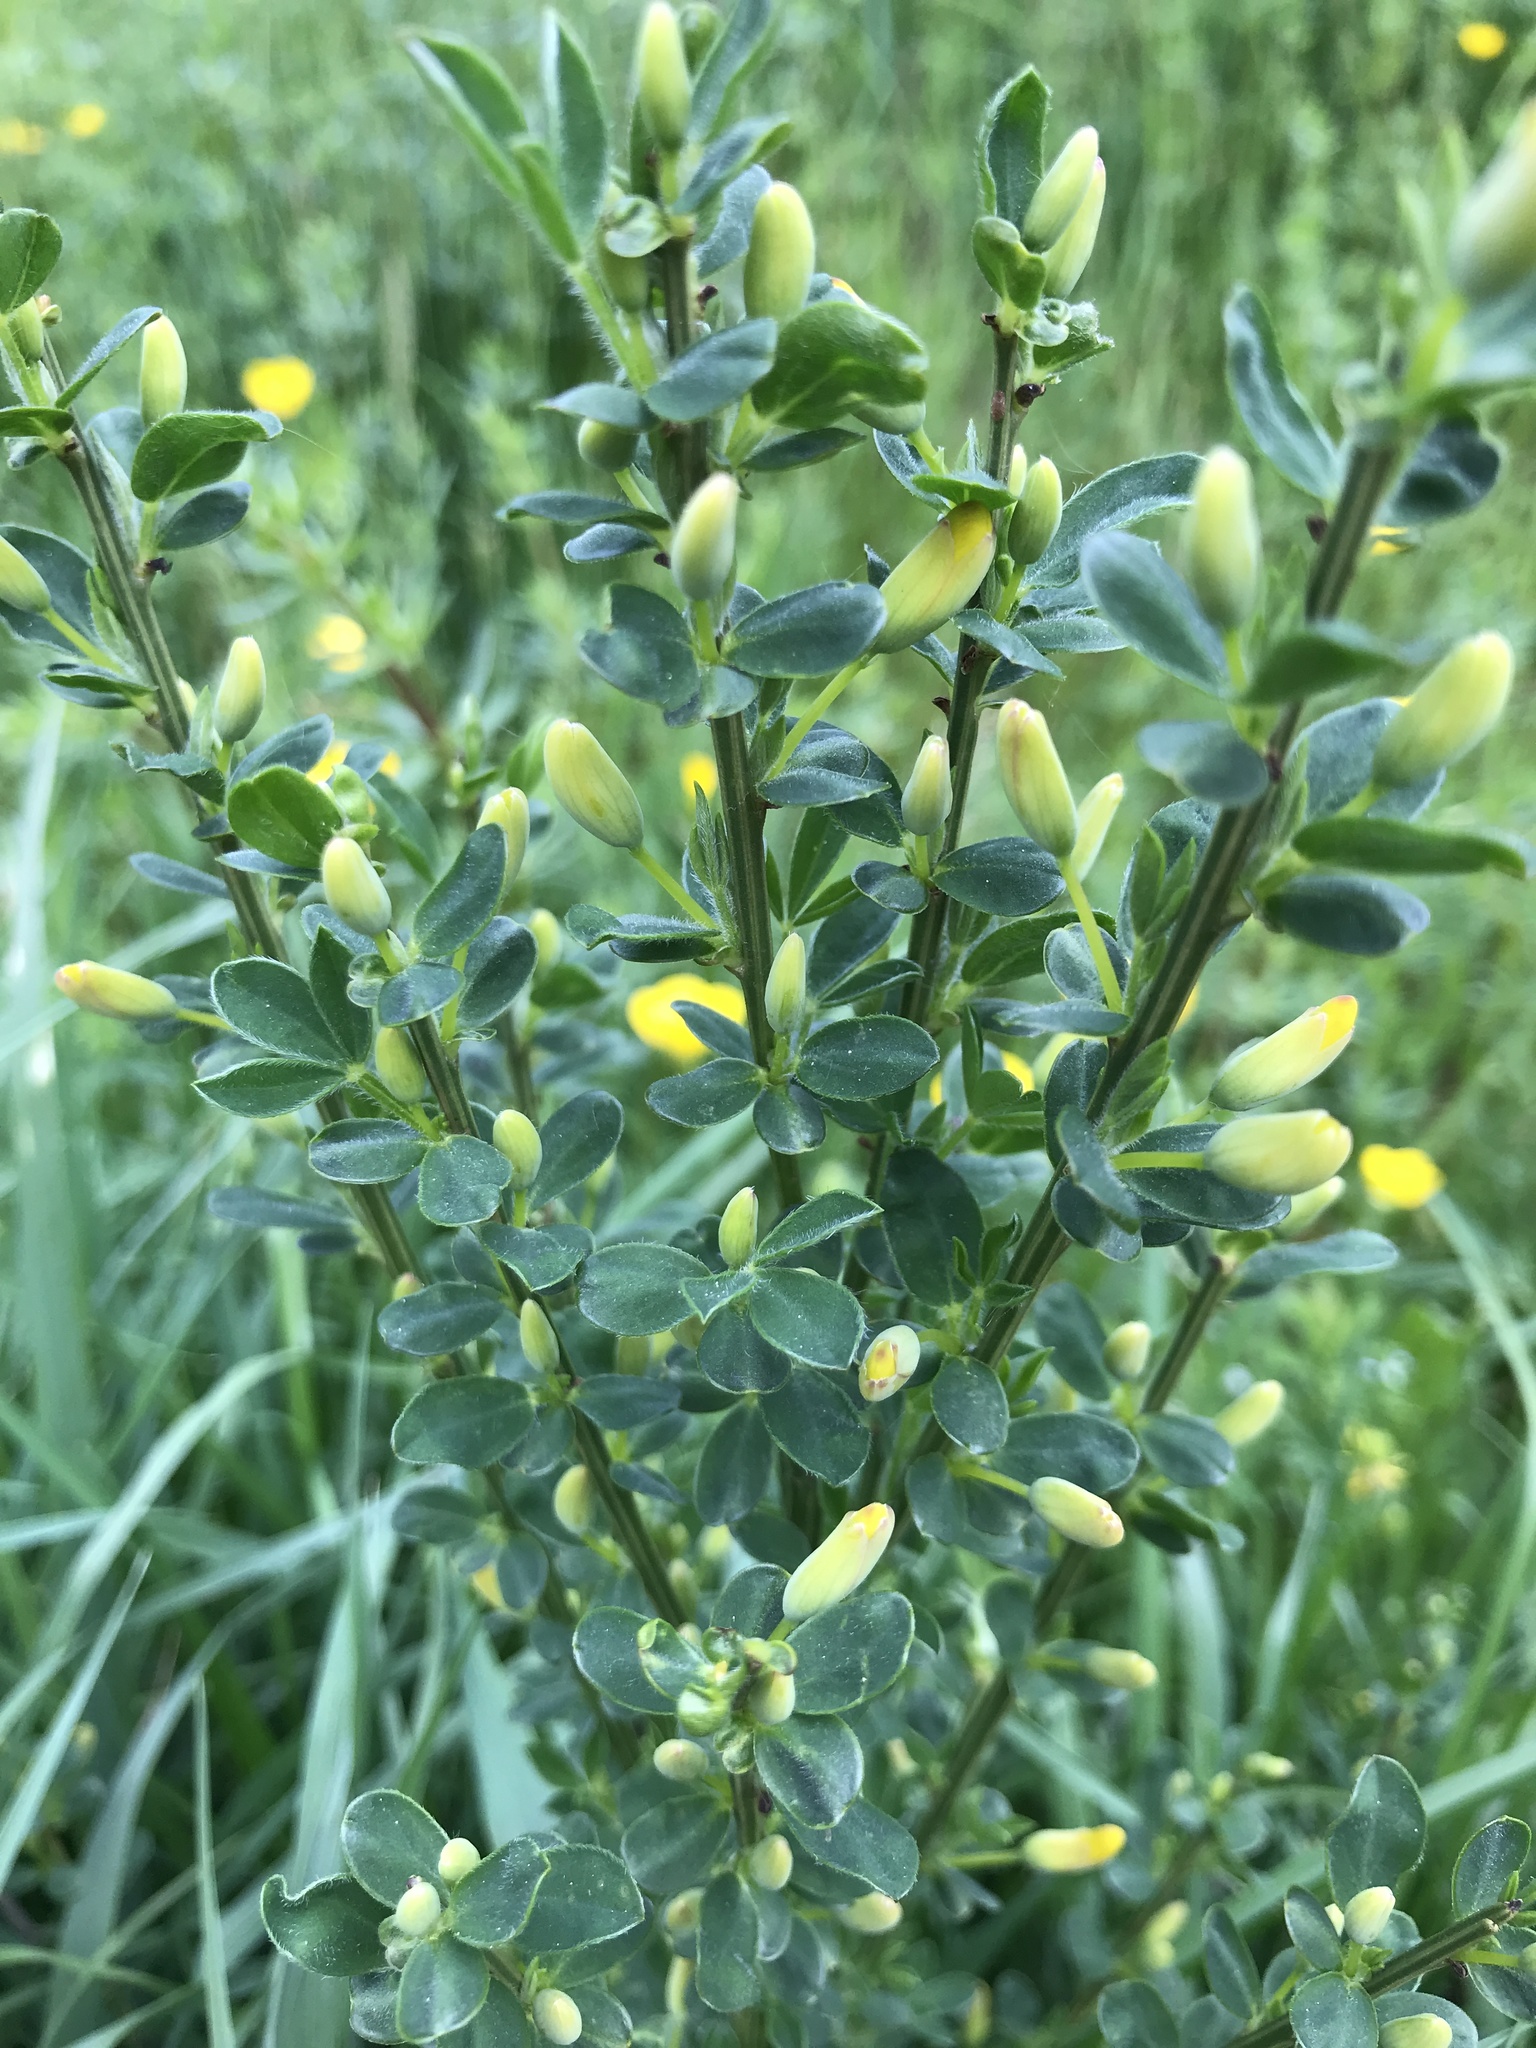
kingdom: Plantae
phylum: Tracheophyta
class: Magnoliopsida
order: Fabales
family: Fabaceae
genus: Cytisus
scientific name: Cytisus scoparius
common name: Scotch broom
